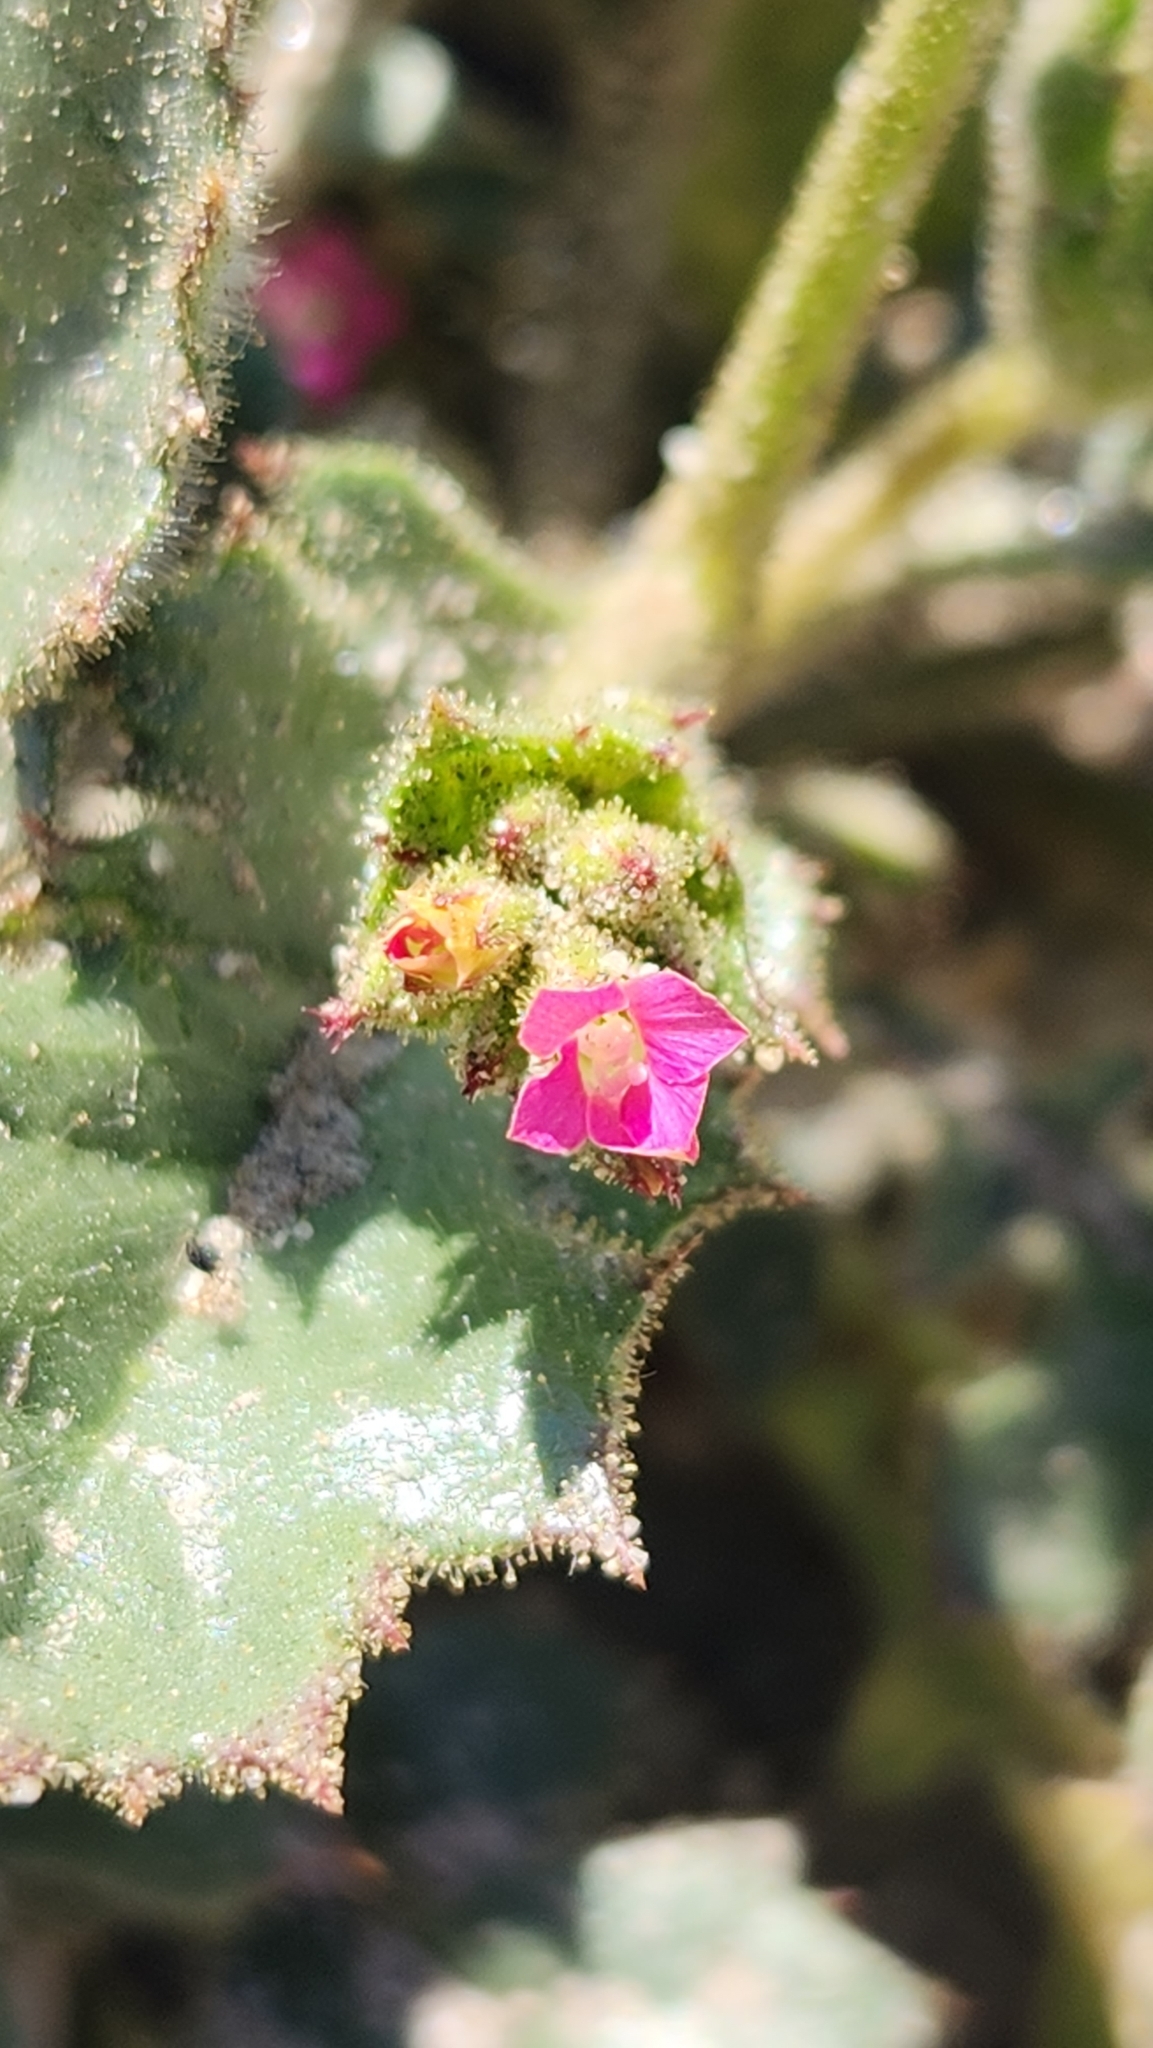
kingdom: Plantae
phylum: Tracheophyta
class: Magnoliopsida
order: Ericales
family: Polemoniaceae
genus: Aliciella
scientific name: Aliciella latifolia
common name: Broad-leaf gilia
